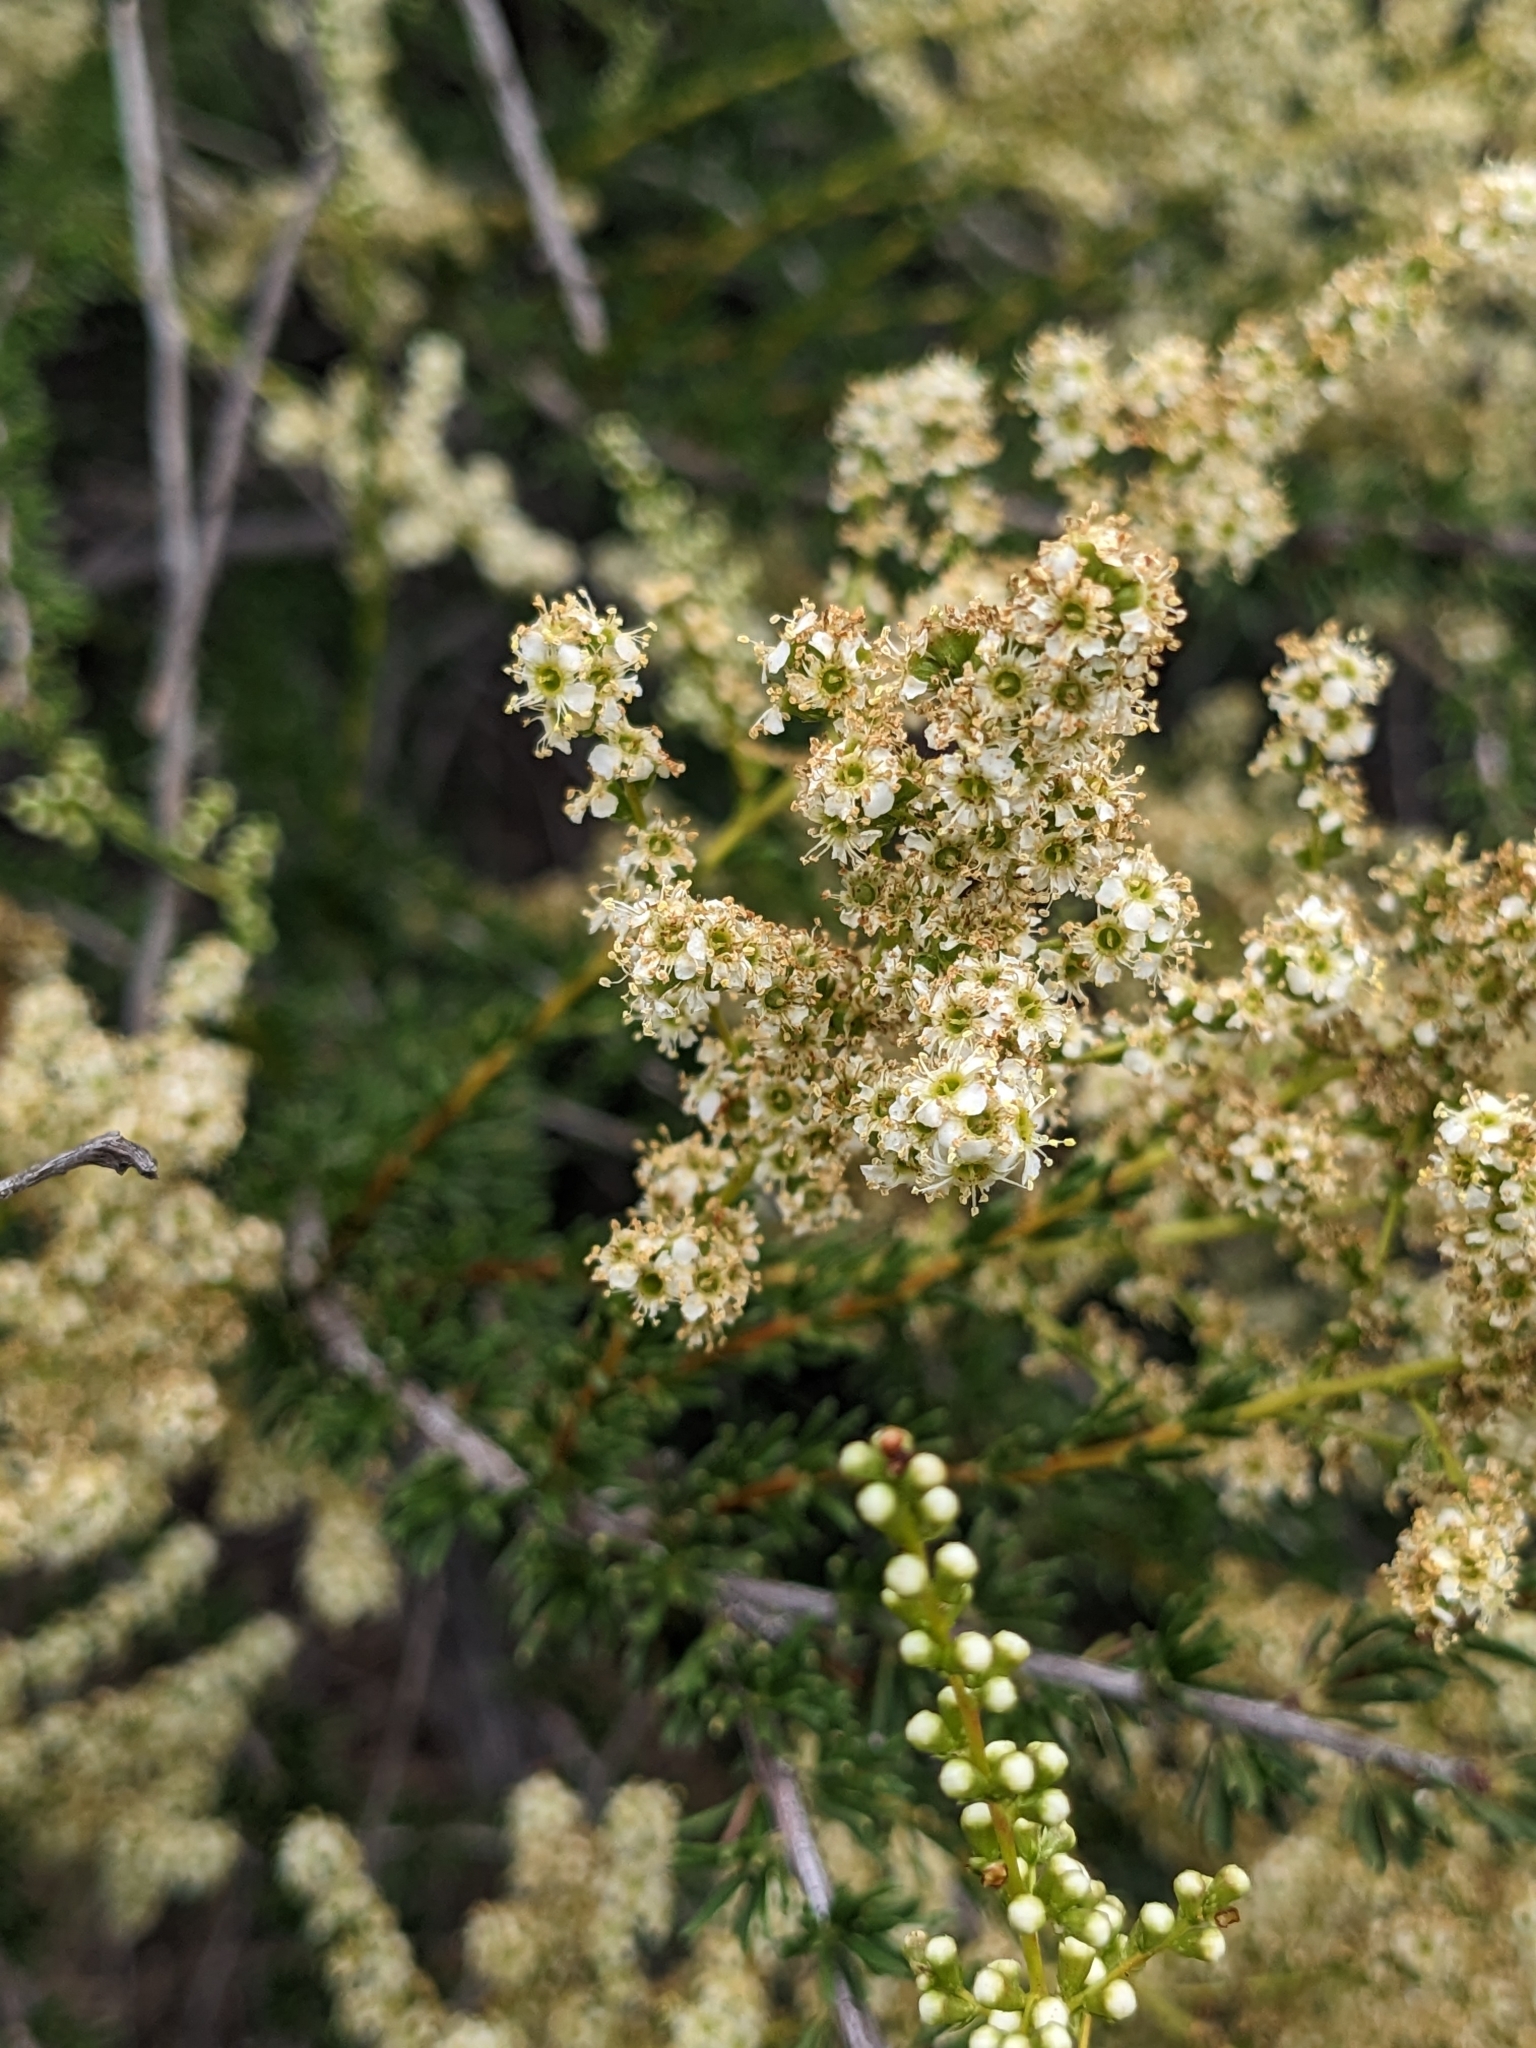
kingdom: Plantae
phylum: Tracheophyta
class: Magnoliopsida
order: Rosales
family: Rosaceae
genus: Adenostoma
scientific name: Adenostoma fasciculatum
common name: Chamise
